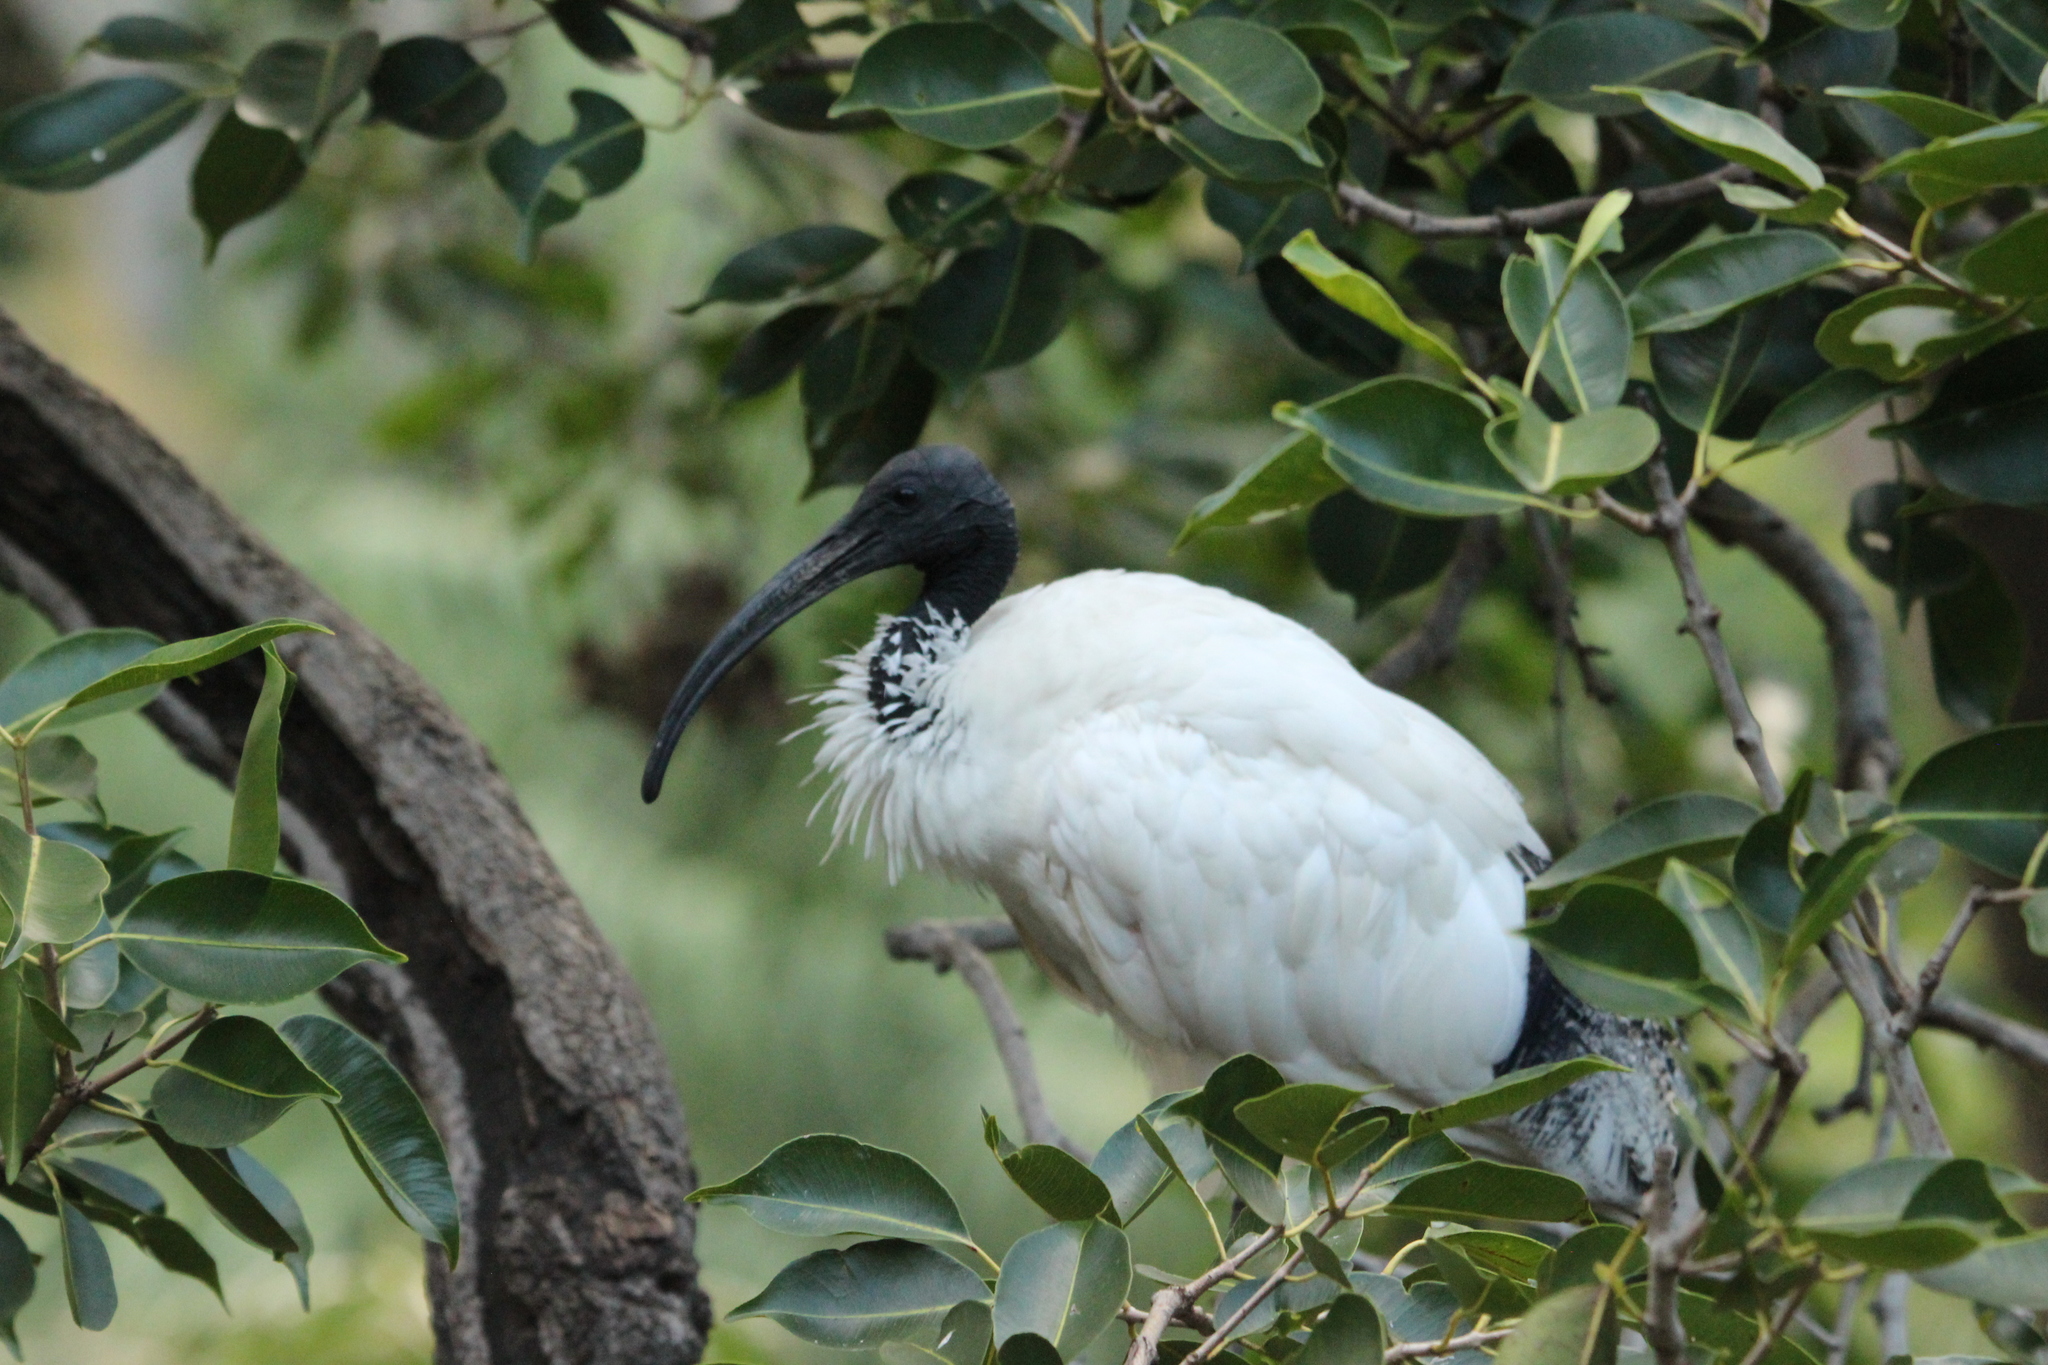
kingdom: Animalia
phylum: Chordata
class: Aves
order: Pelecaniformes
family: Threskiornithidae
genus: Threskiornis
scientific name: Threskiornis molucca
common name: Australian white ibis
